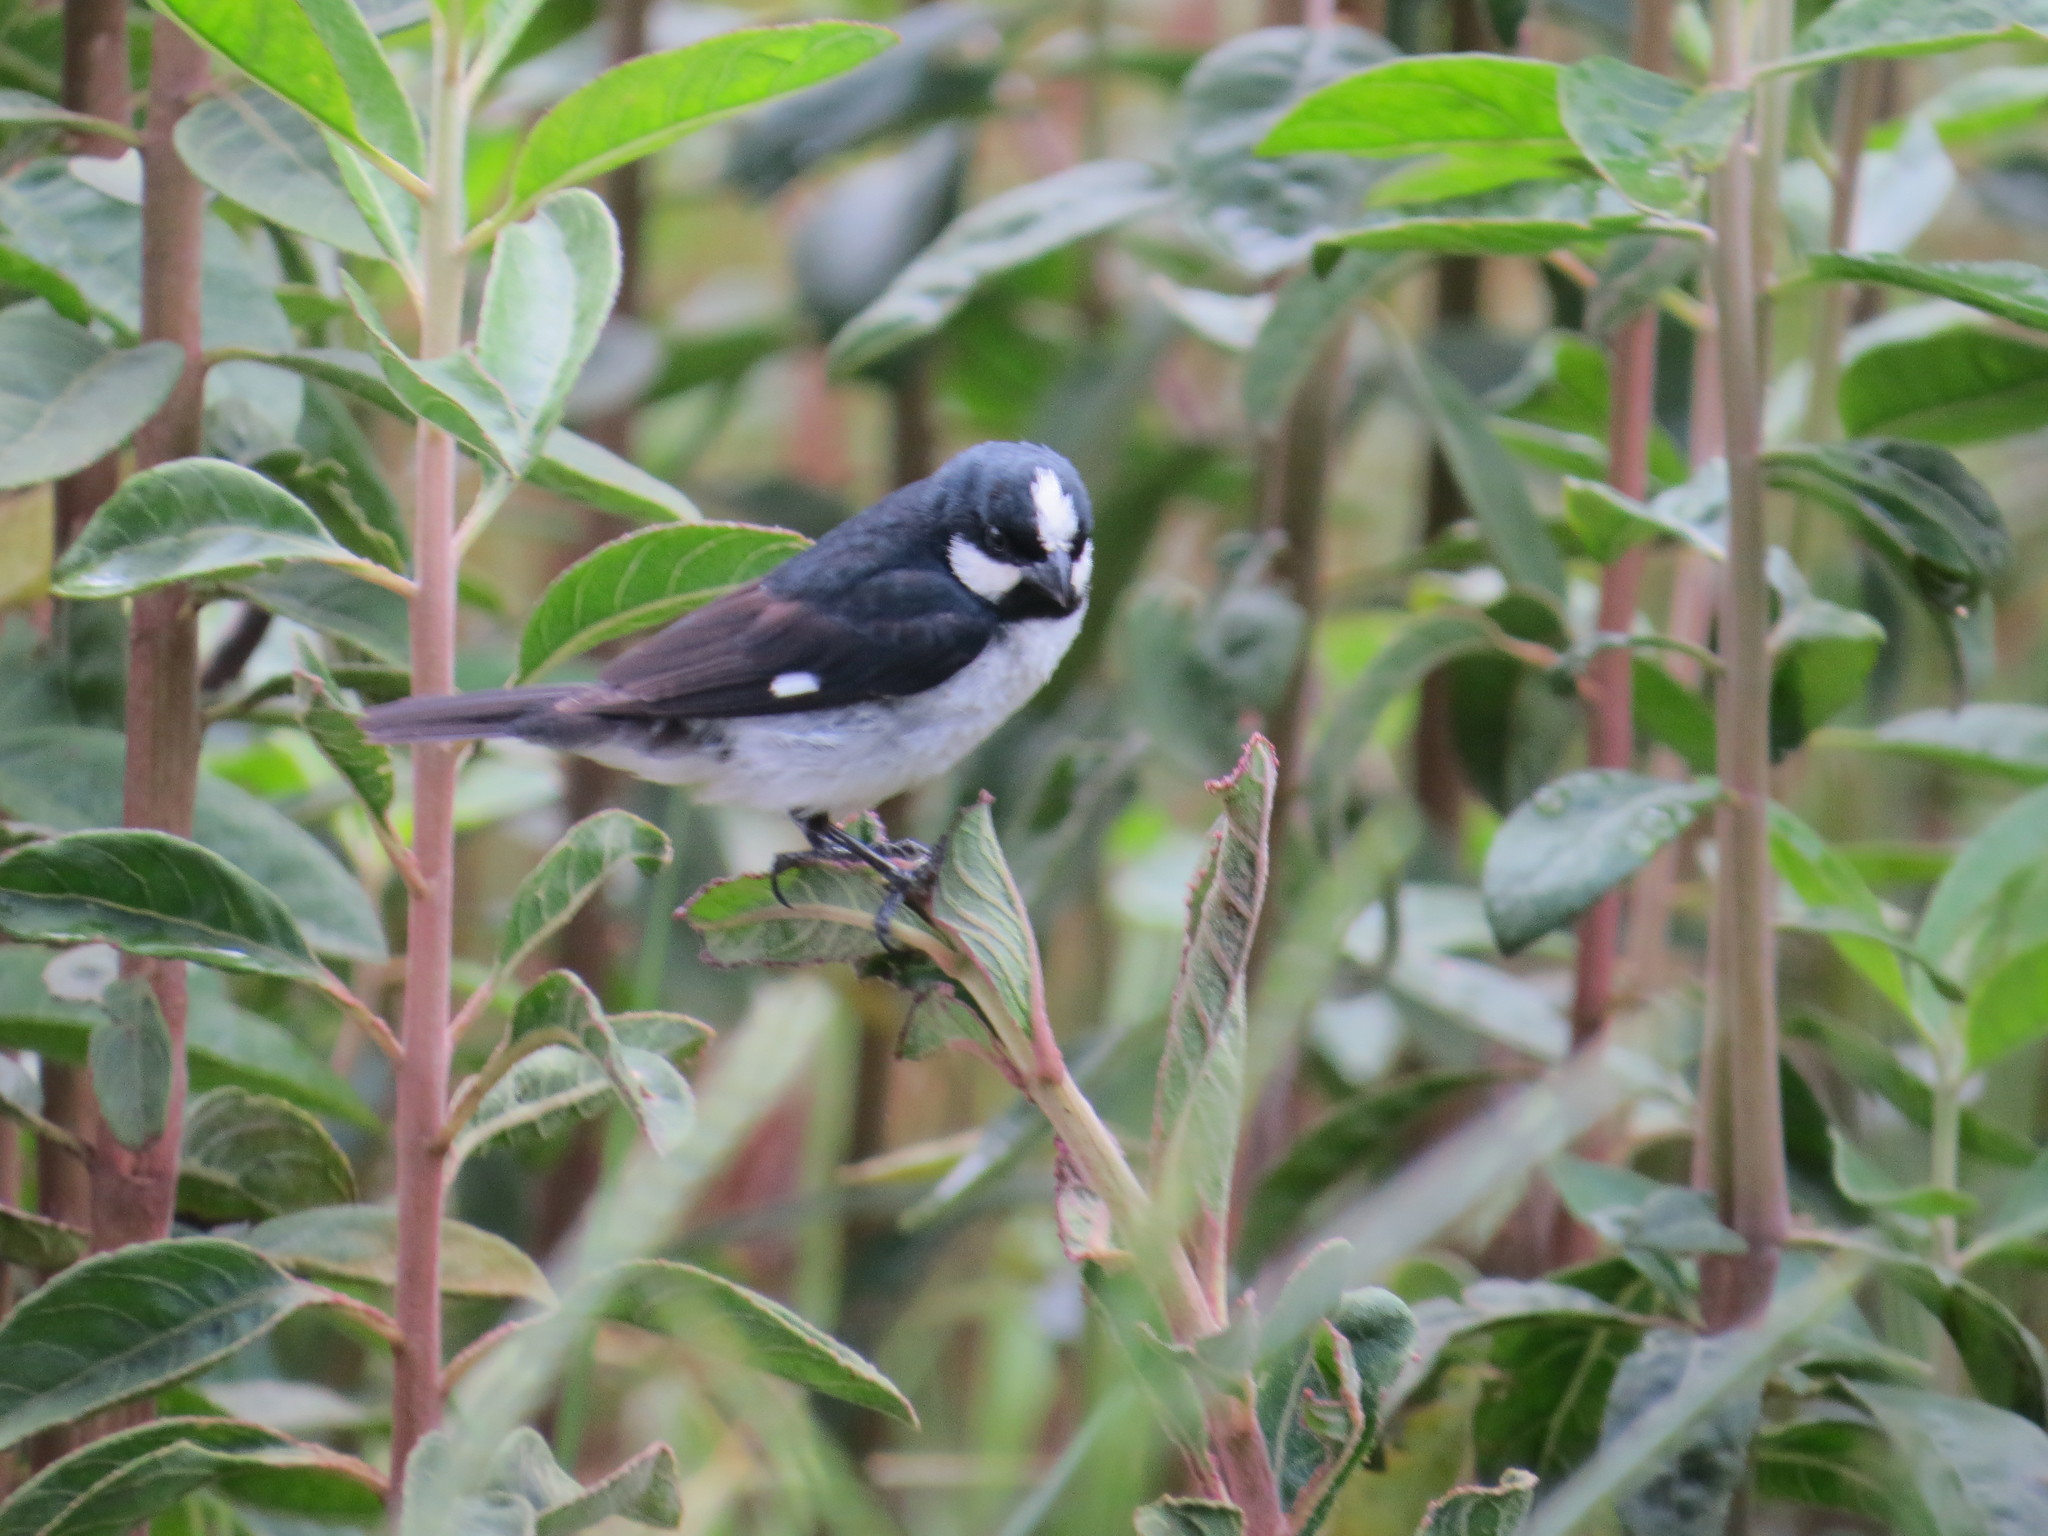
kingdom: Animalia
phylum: Chordata
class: Aves
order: Passeriformes
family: Thraupidae
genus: Sporophila
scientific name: Sporophila lineola
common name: Lined seedeater
